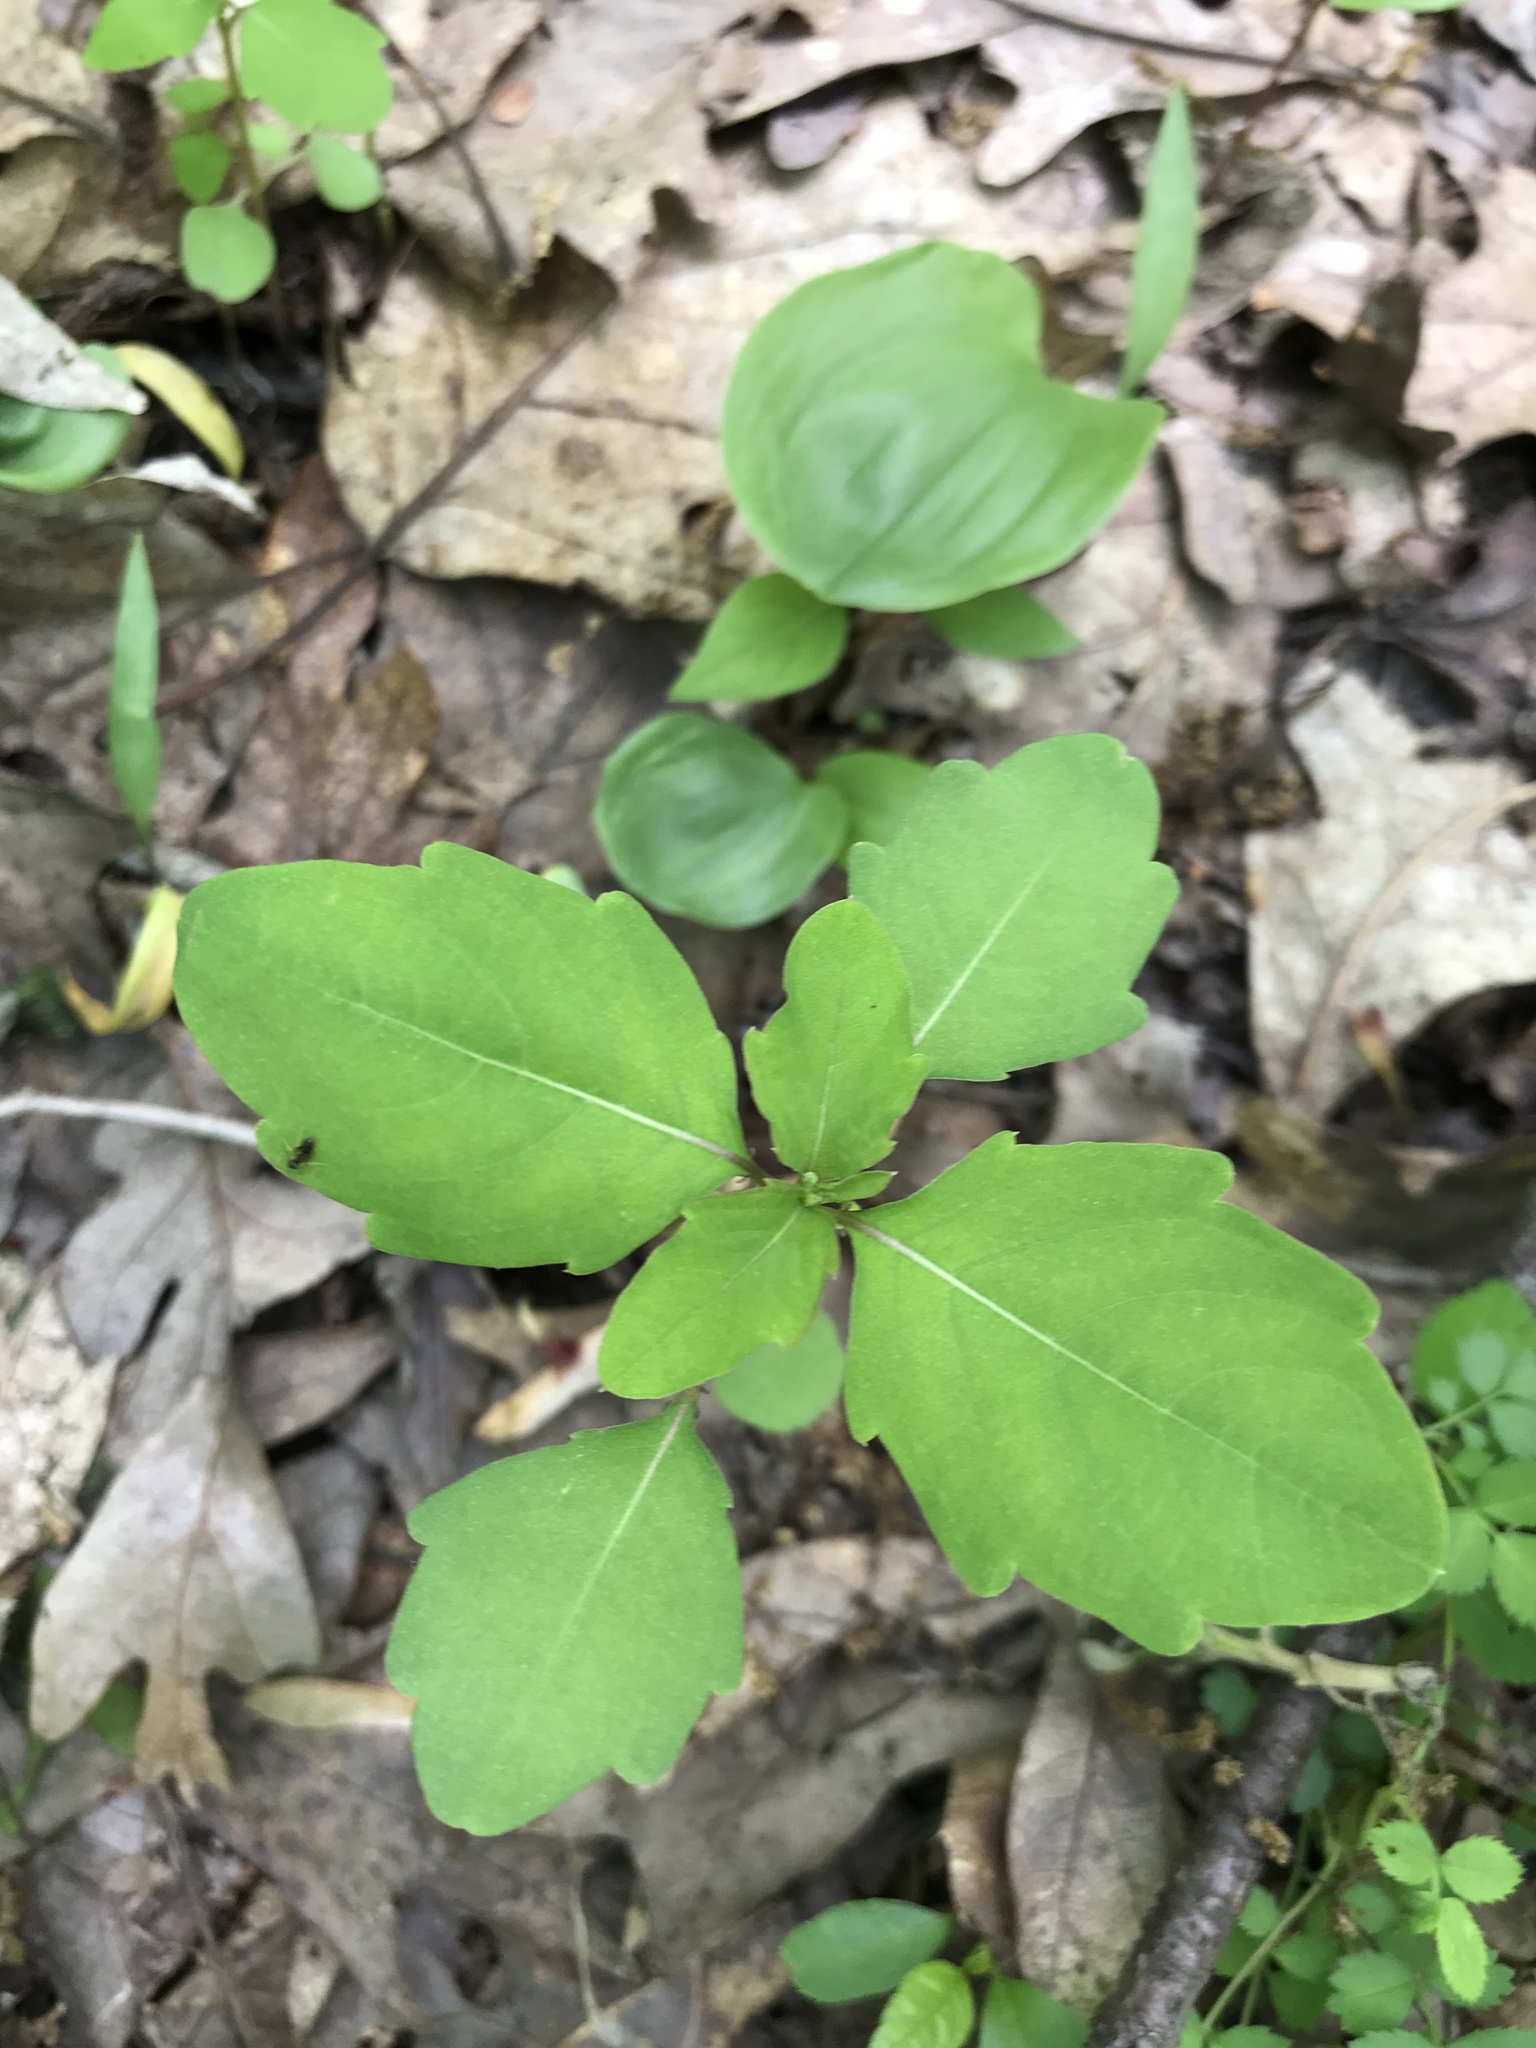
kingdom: Plantae
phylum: Tracheophyta
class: Magnoliopsida
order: Ericales
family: Balsaminaceae
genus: Impatiens
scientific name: Impatiens capensis
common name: Orange balsam
